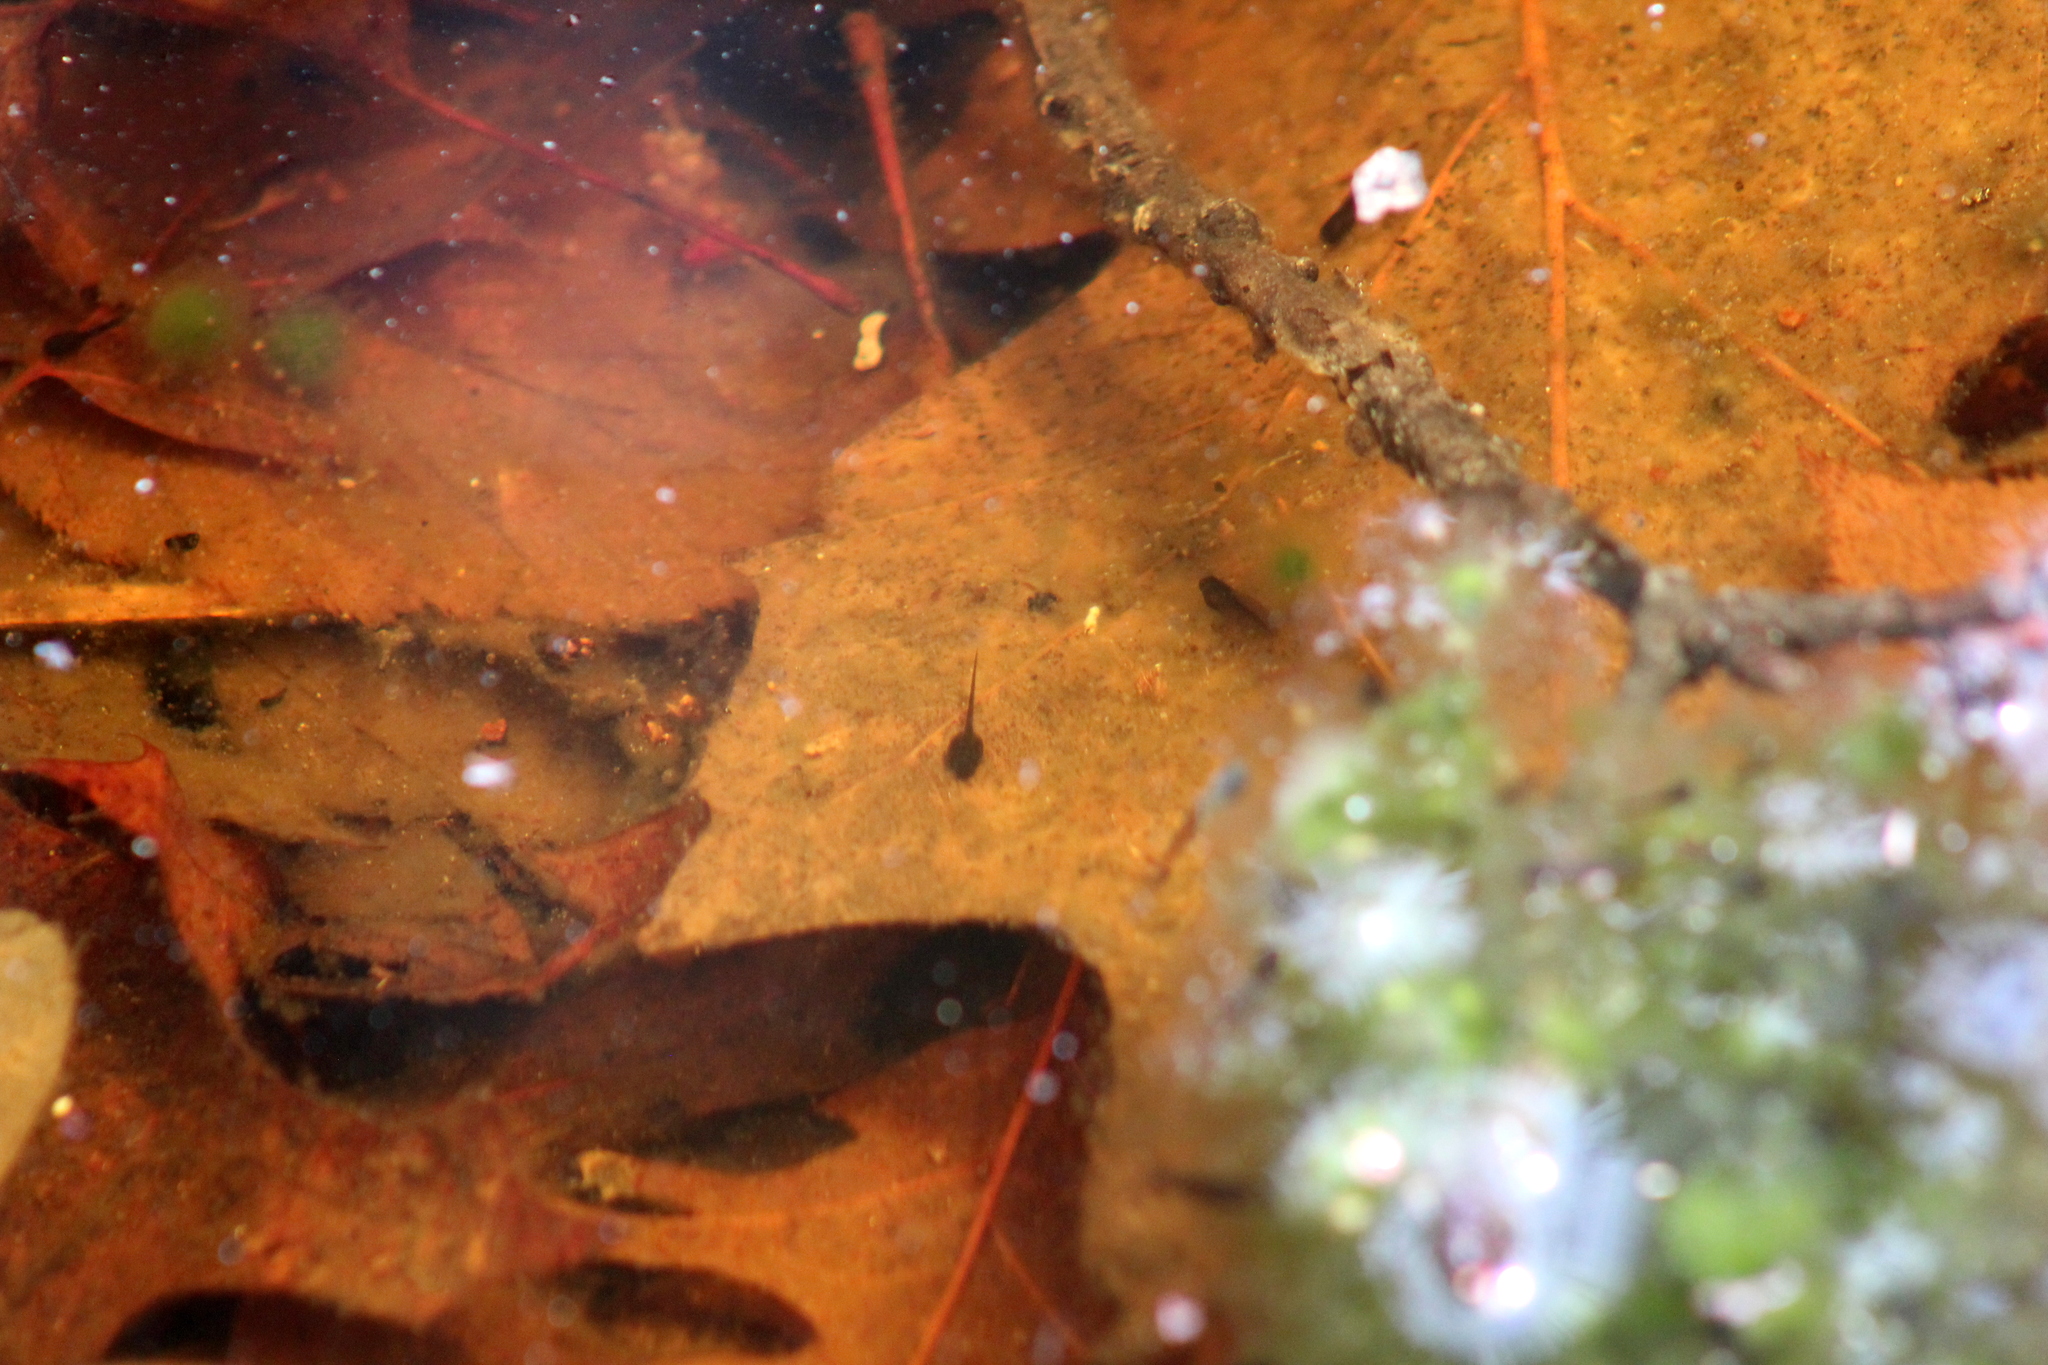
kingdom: Animalia
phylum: Chordata
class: Amphibia
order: Anura
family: Ranidae
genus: Lithobates
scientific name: Lithobates sylvaticus
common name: Wood frog
